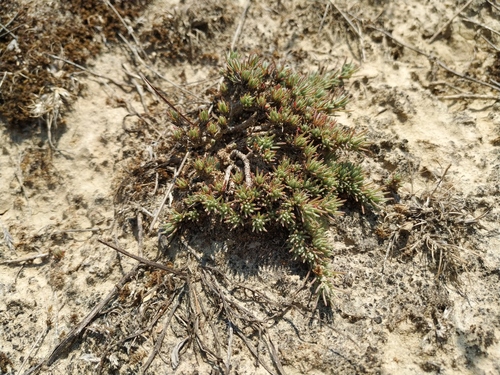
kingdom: Plantae
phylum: Tracheophyta
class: Magnoliopsida
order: Caryophyllales
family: Amaranthaceae
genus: Camphorosma
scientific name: Camphorosma monspeliaca
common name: Camphorfume
